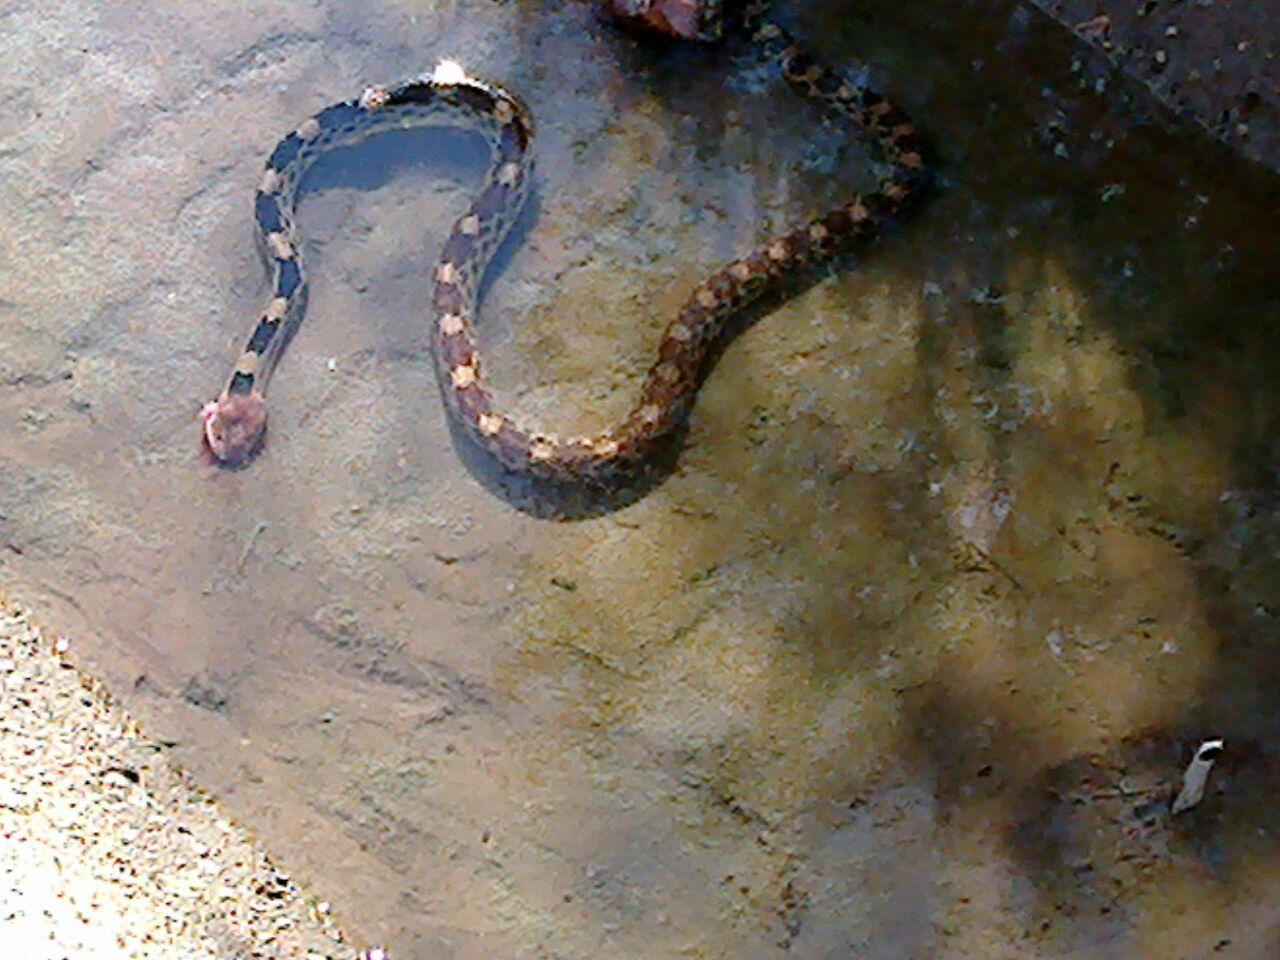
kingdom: Animalia
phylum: Chordata
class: Squamata
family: Colubridae
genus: Pituophis
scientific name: Pituophis deppei
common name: Mexican bull snake
